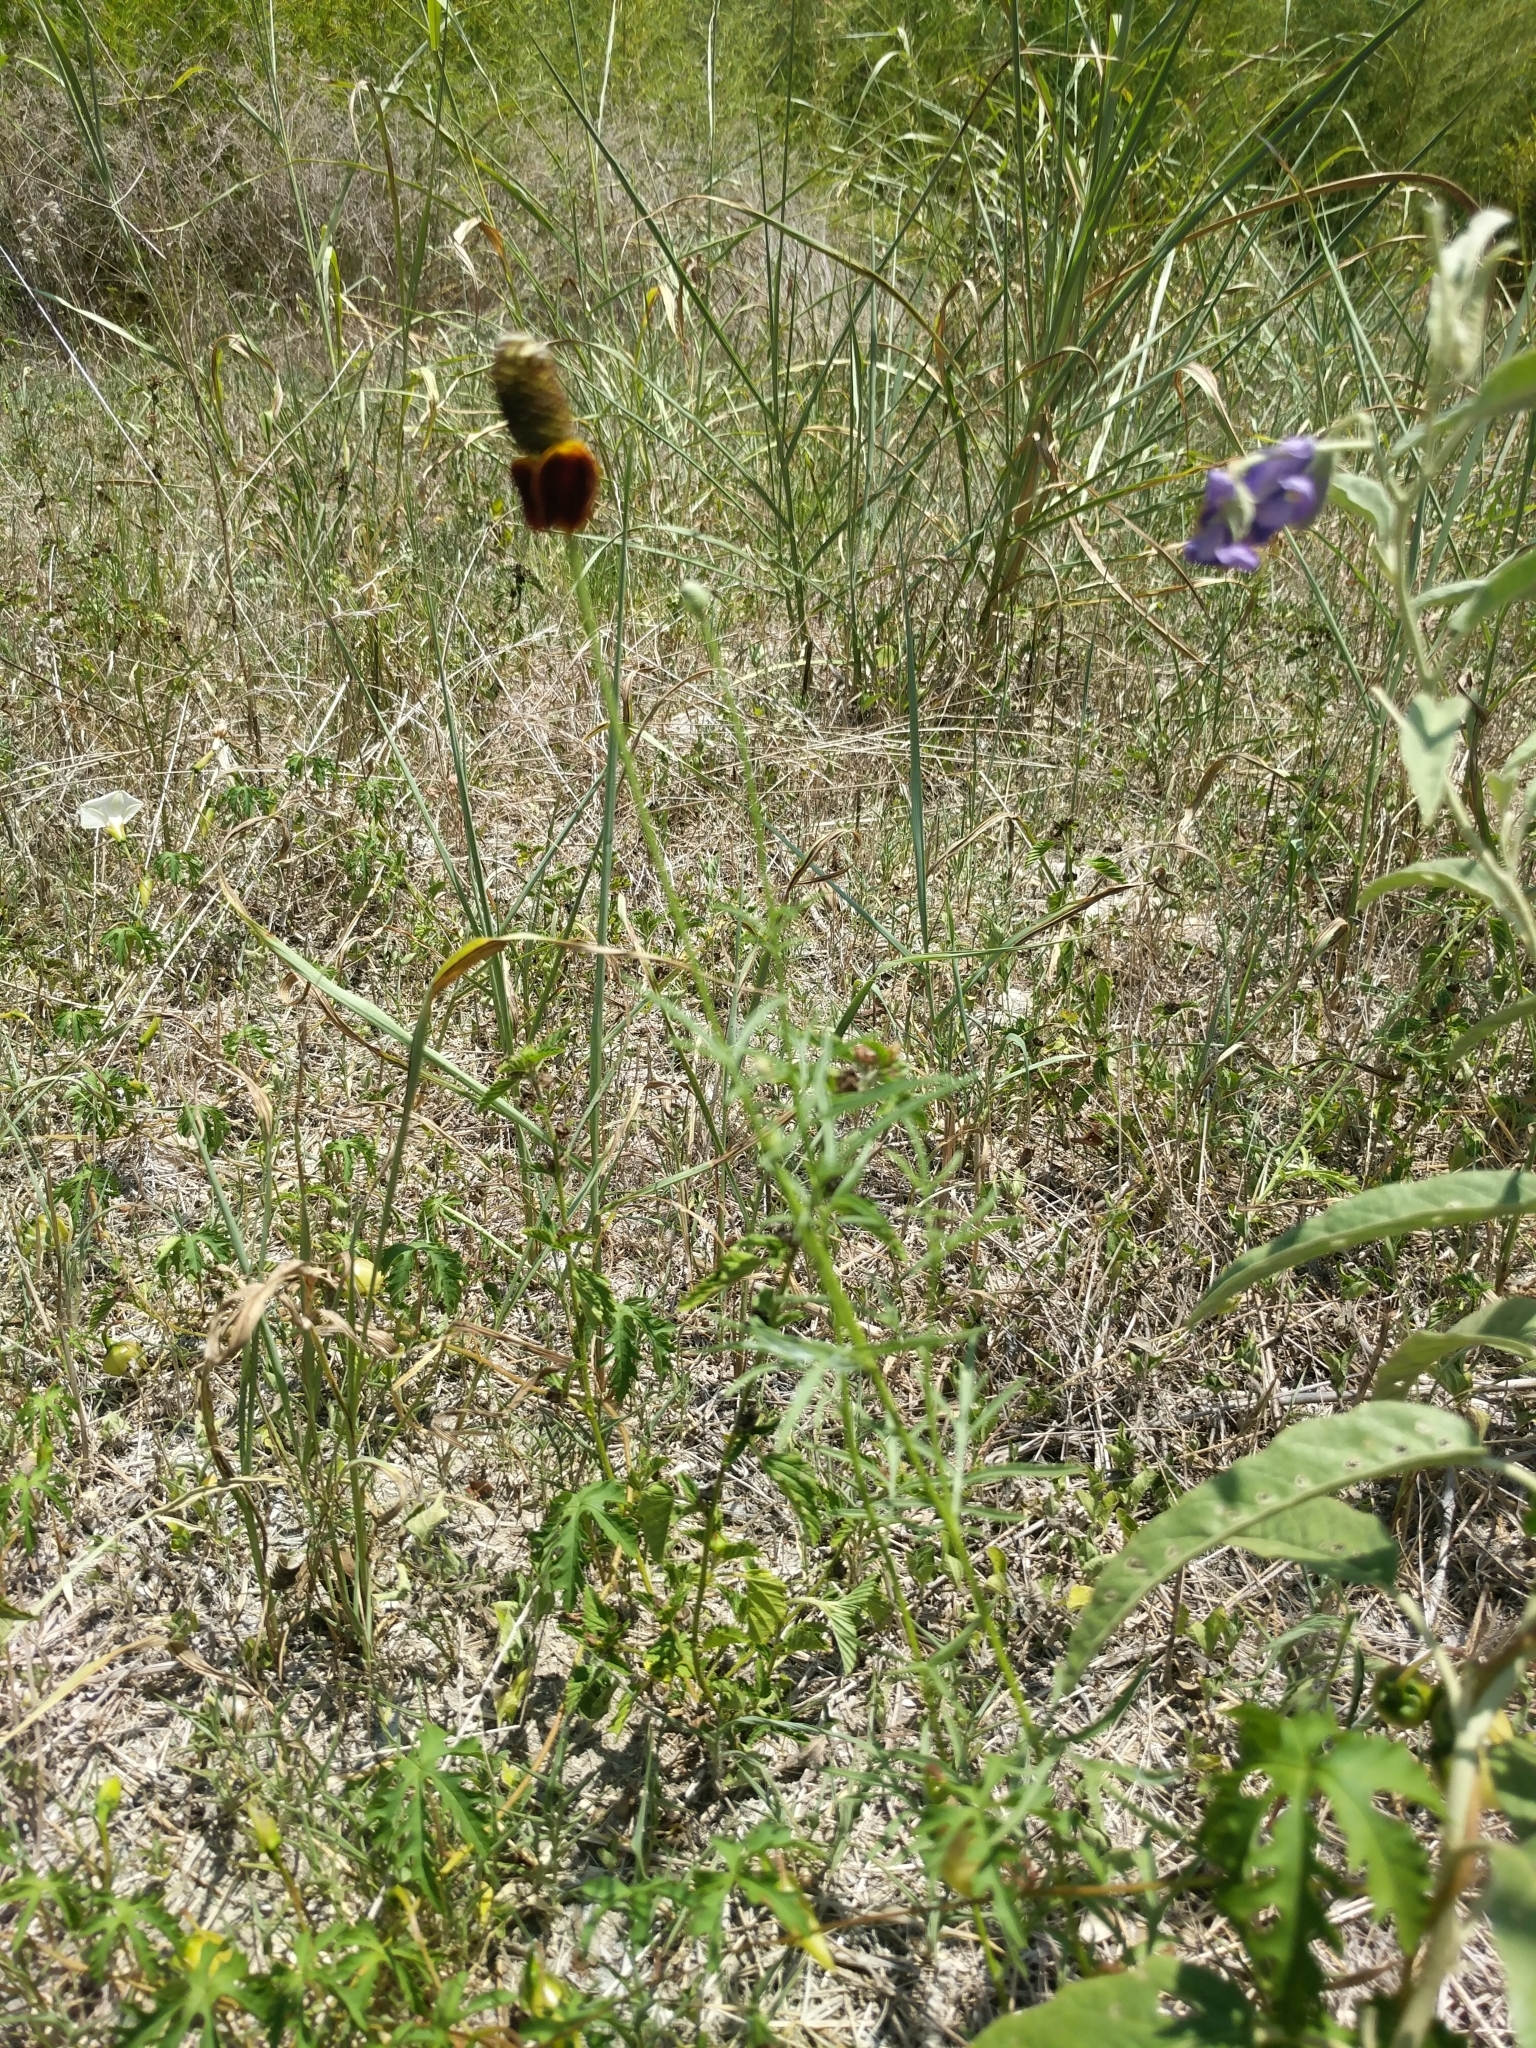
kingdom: Plantae
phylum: Tracheophyta
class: Magnoliopsida
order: Asterales
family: Asteraceae
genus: Ratibida
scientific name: Ratibida columnifera
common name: Prairie coneflower
